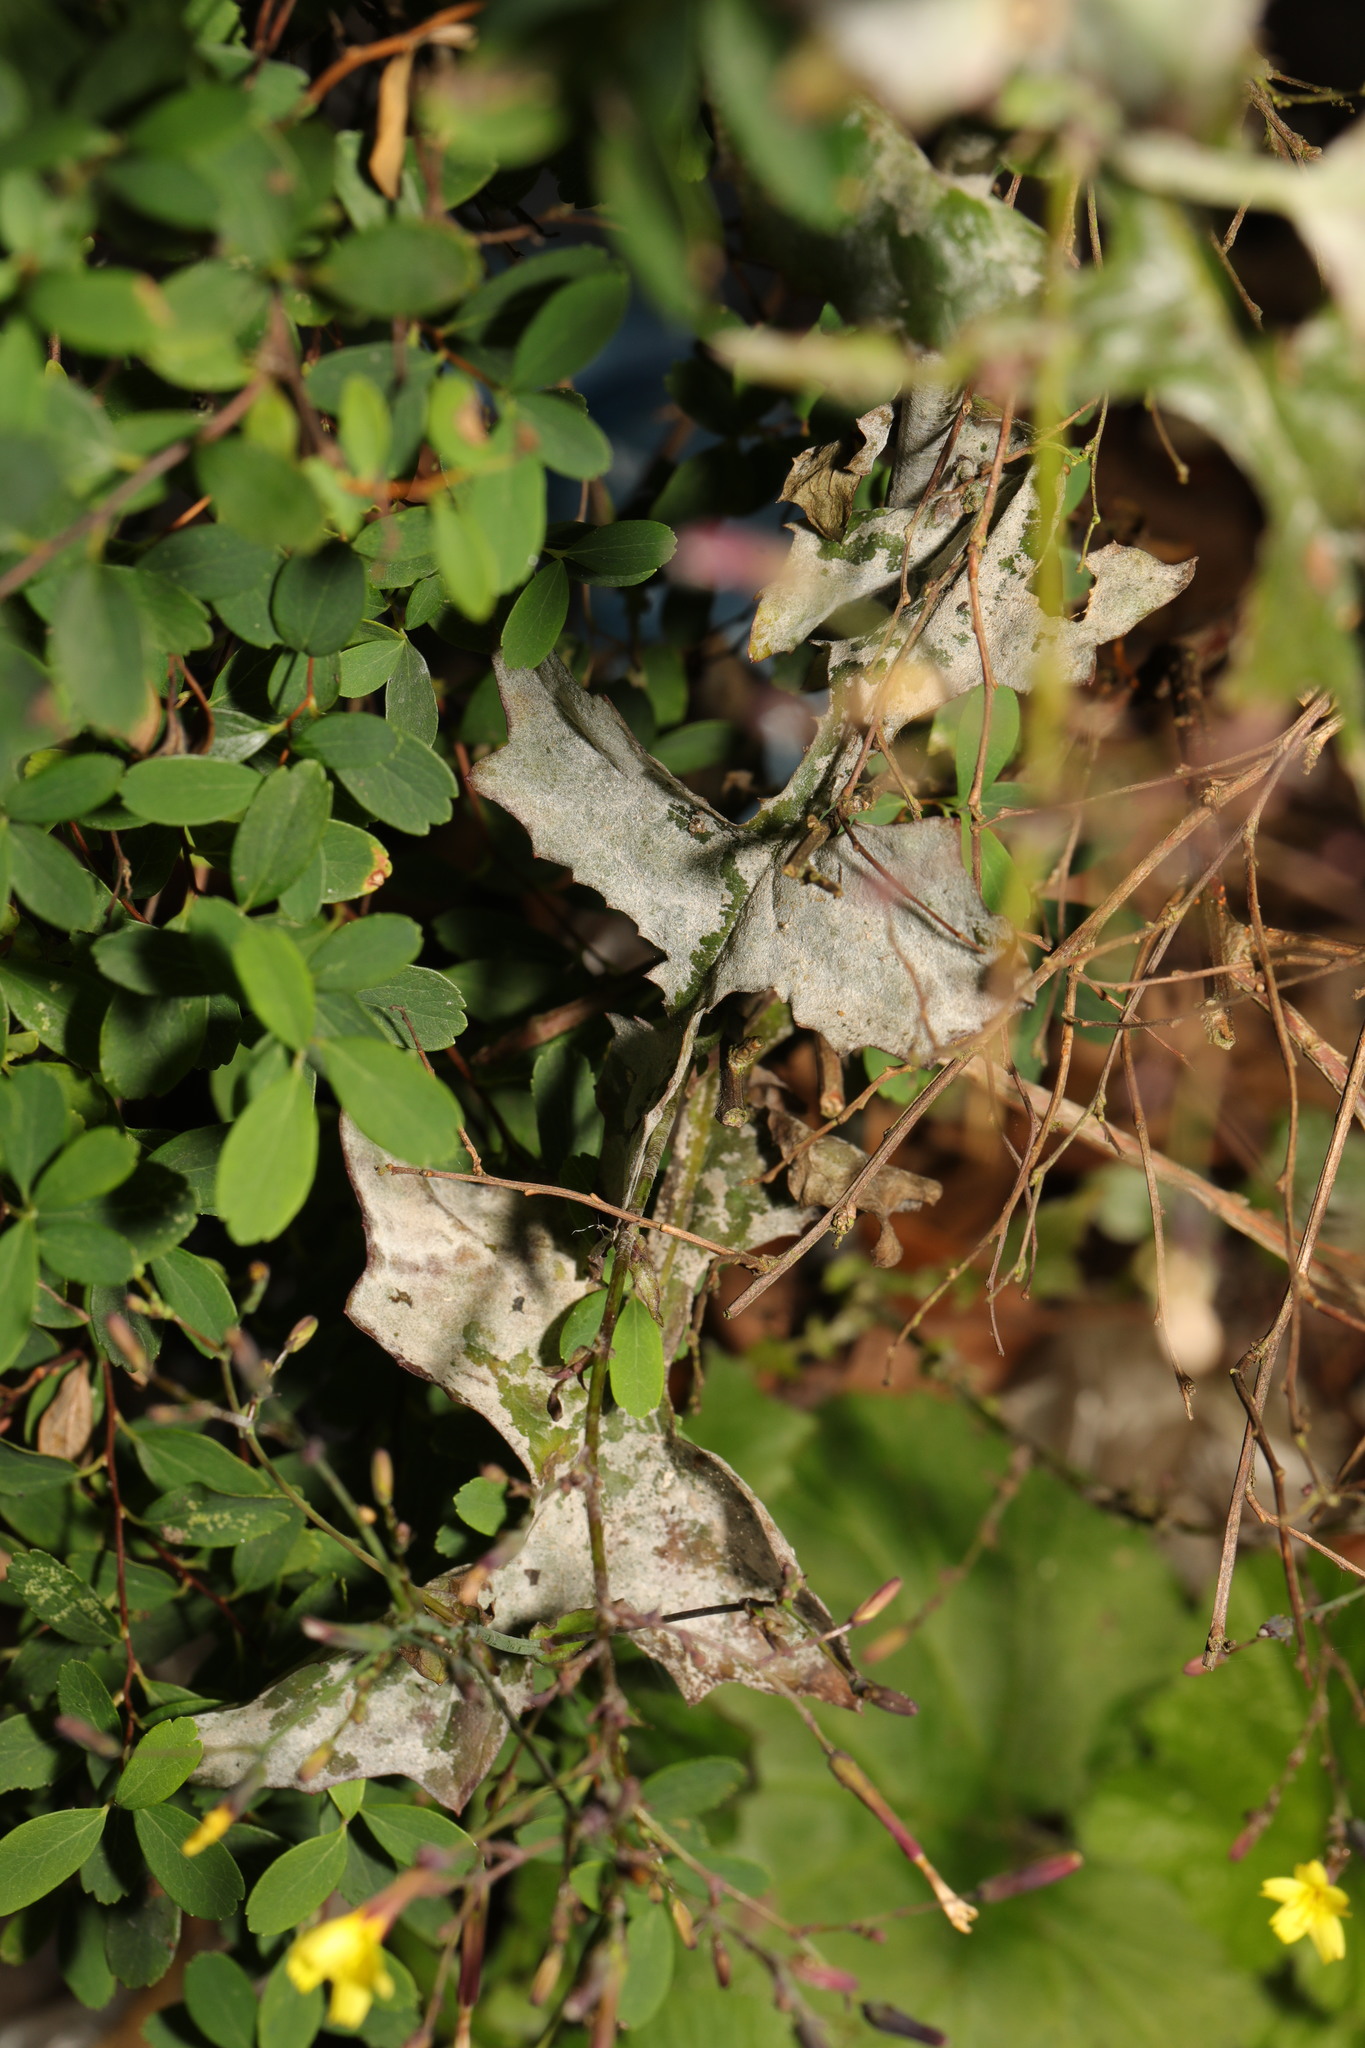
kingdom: Fungi
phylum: Ascomycota
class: Leotiomycetes
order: Helotiales
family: Erysiphaceae
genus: Golovinomyces
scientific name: Golovinomyces bolayi
